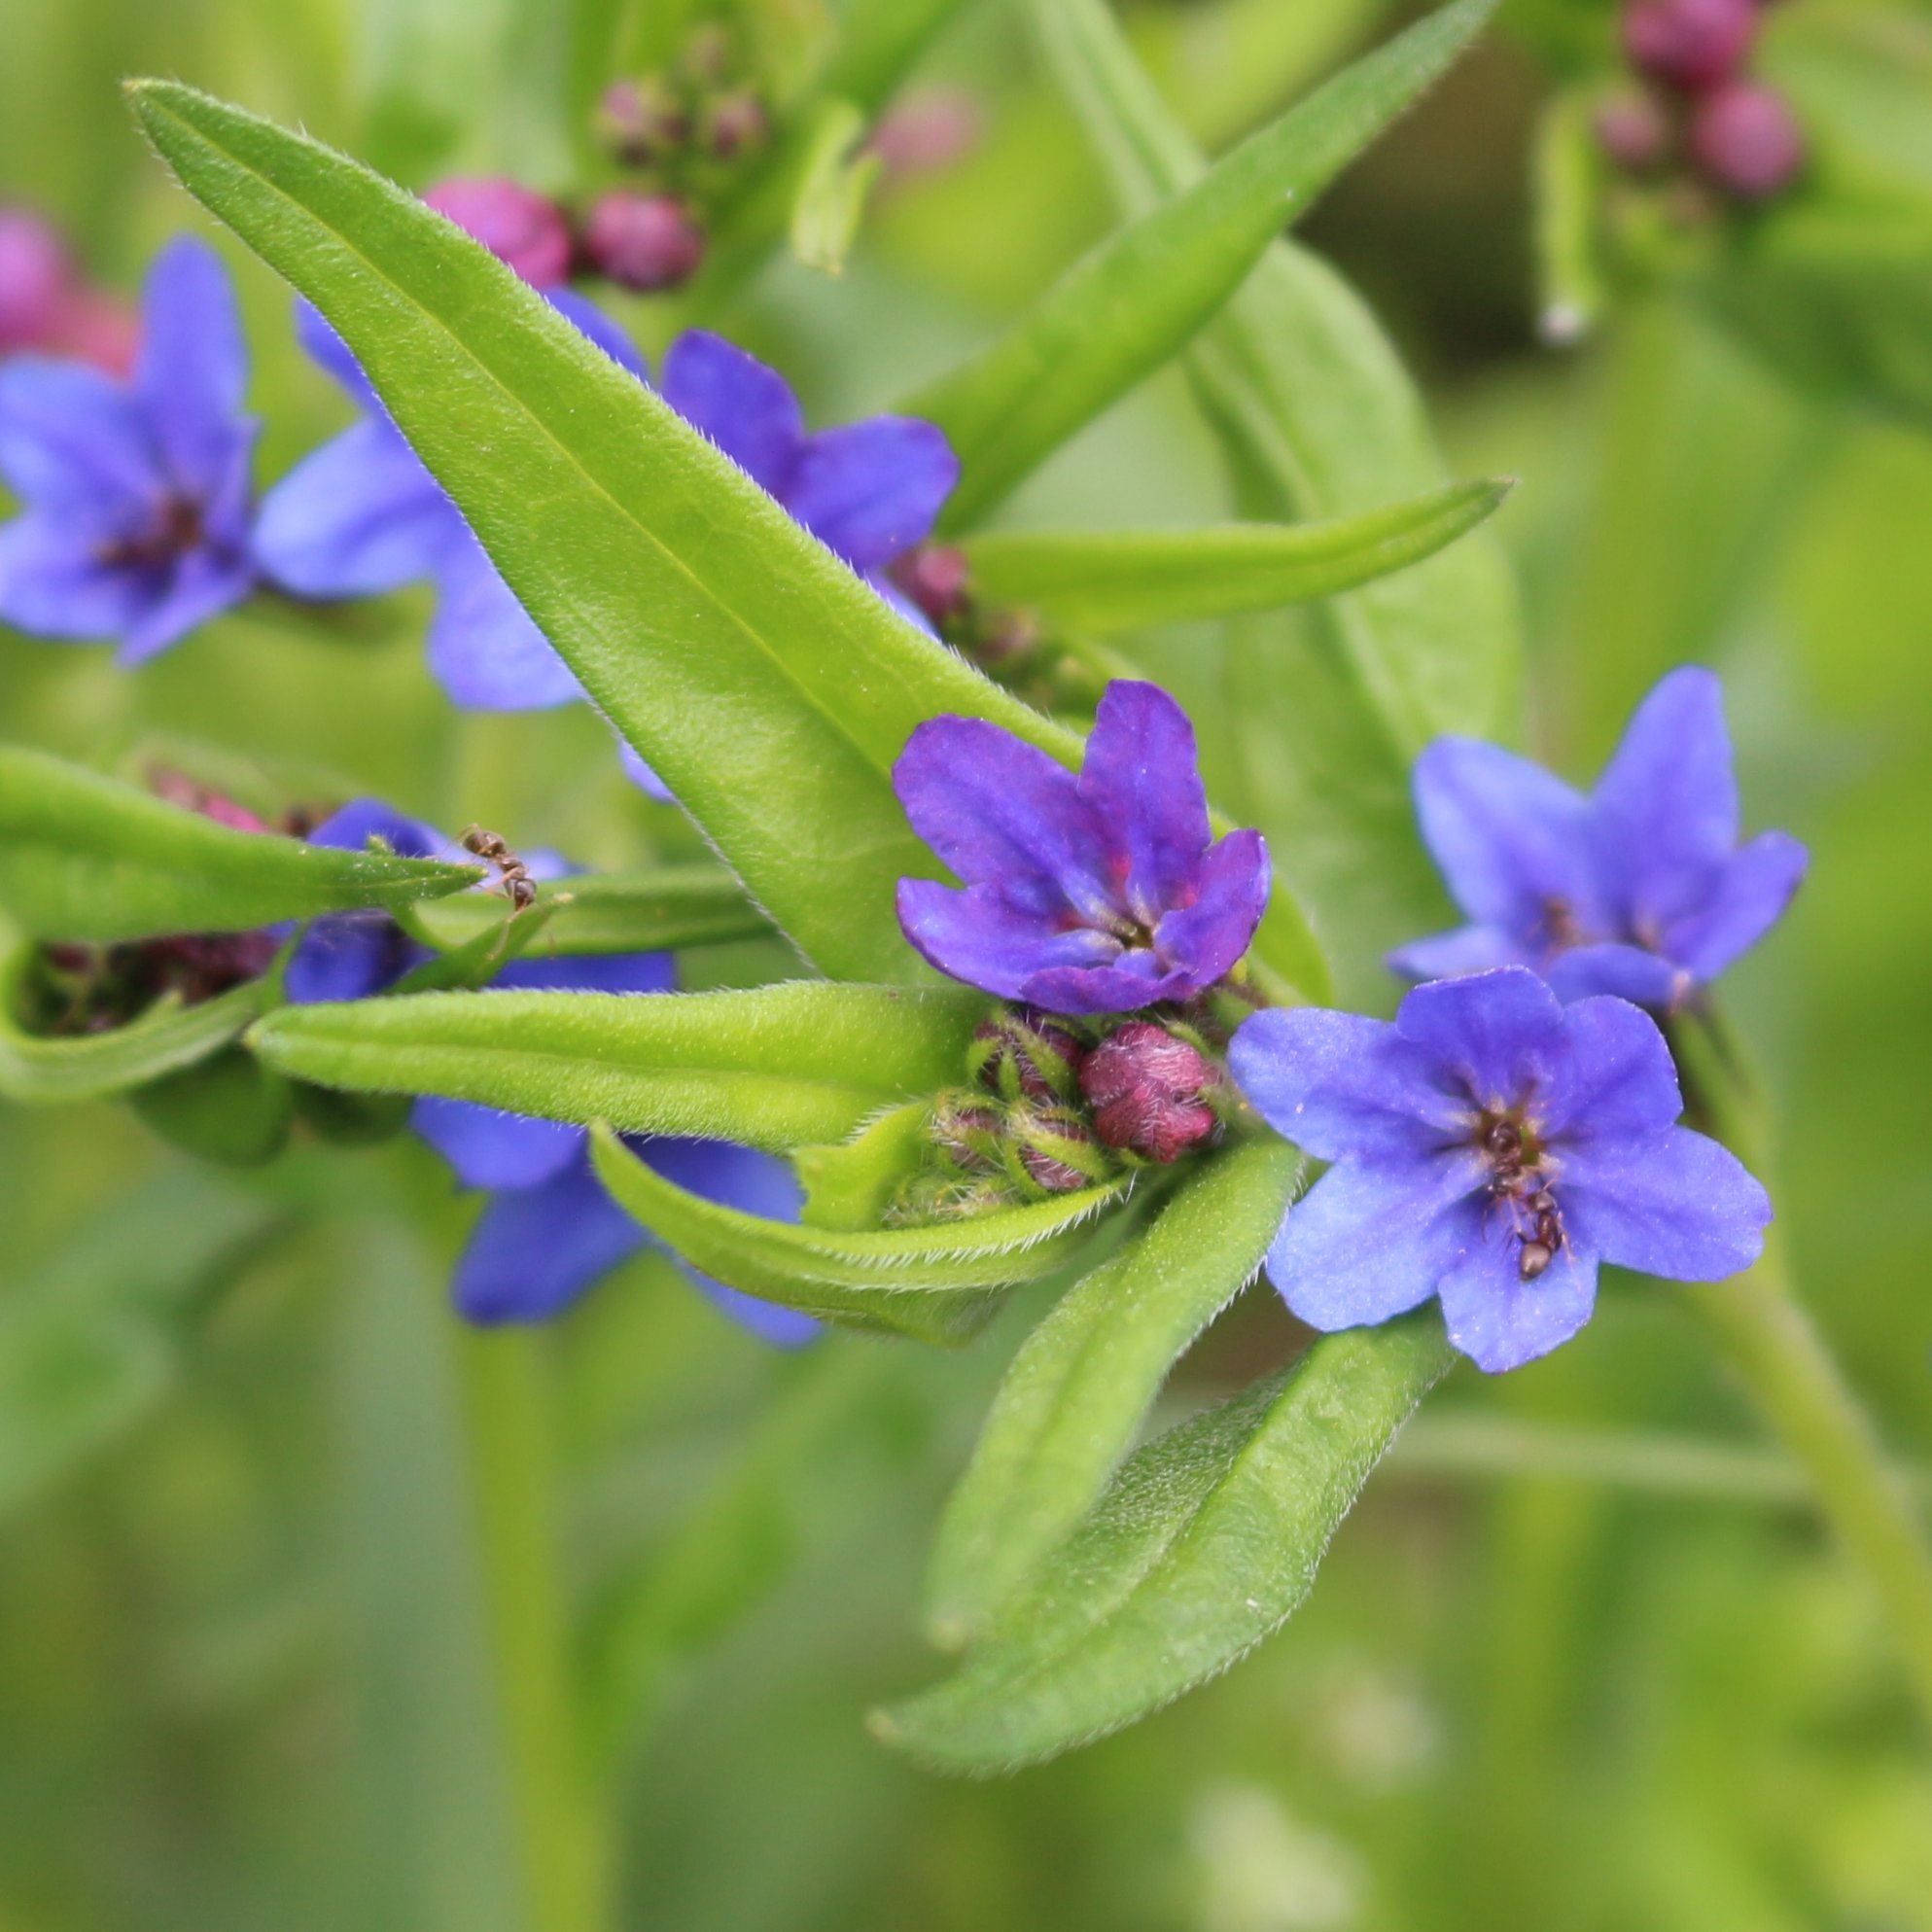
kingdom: Plantae
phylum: Tracheophyta
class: Magnoliopsida
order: Boraginales
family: Boraginaceae
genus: Aegonychon
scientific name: Aegonychon purpurocaeruleum
